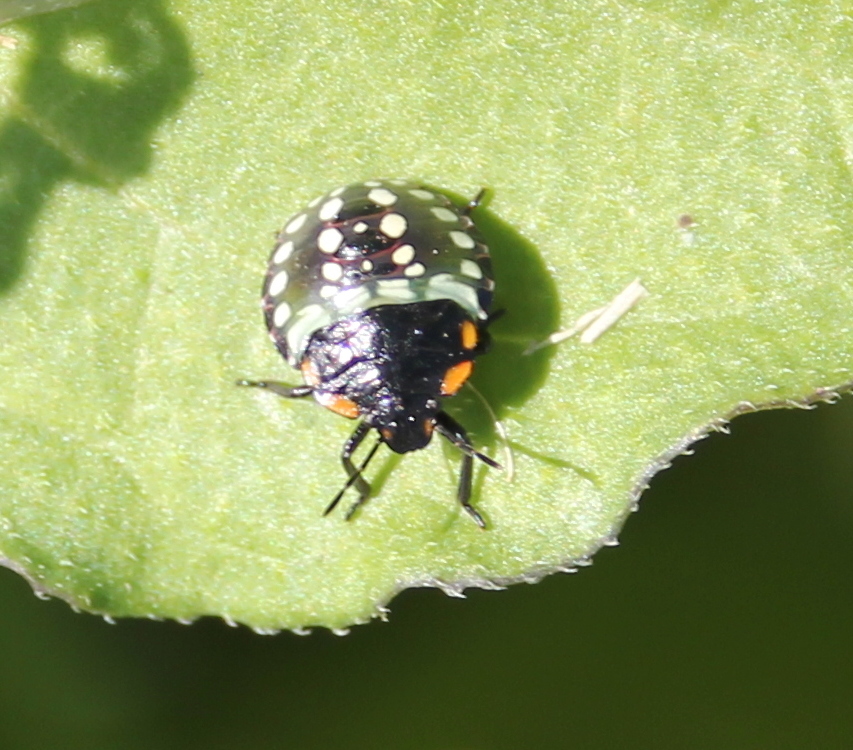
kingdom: Animalia
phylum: Arthropoda
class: Insecta
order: Hemiptera
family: Pentatomidae
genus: Nezara
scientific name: Nezara viridula
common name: Southern green stink bug
